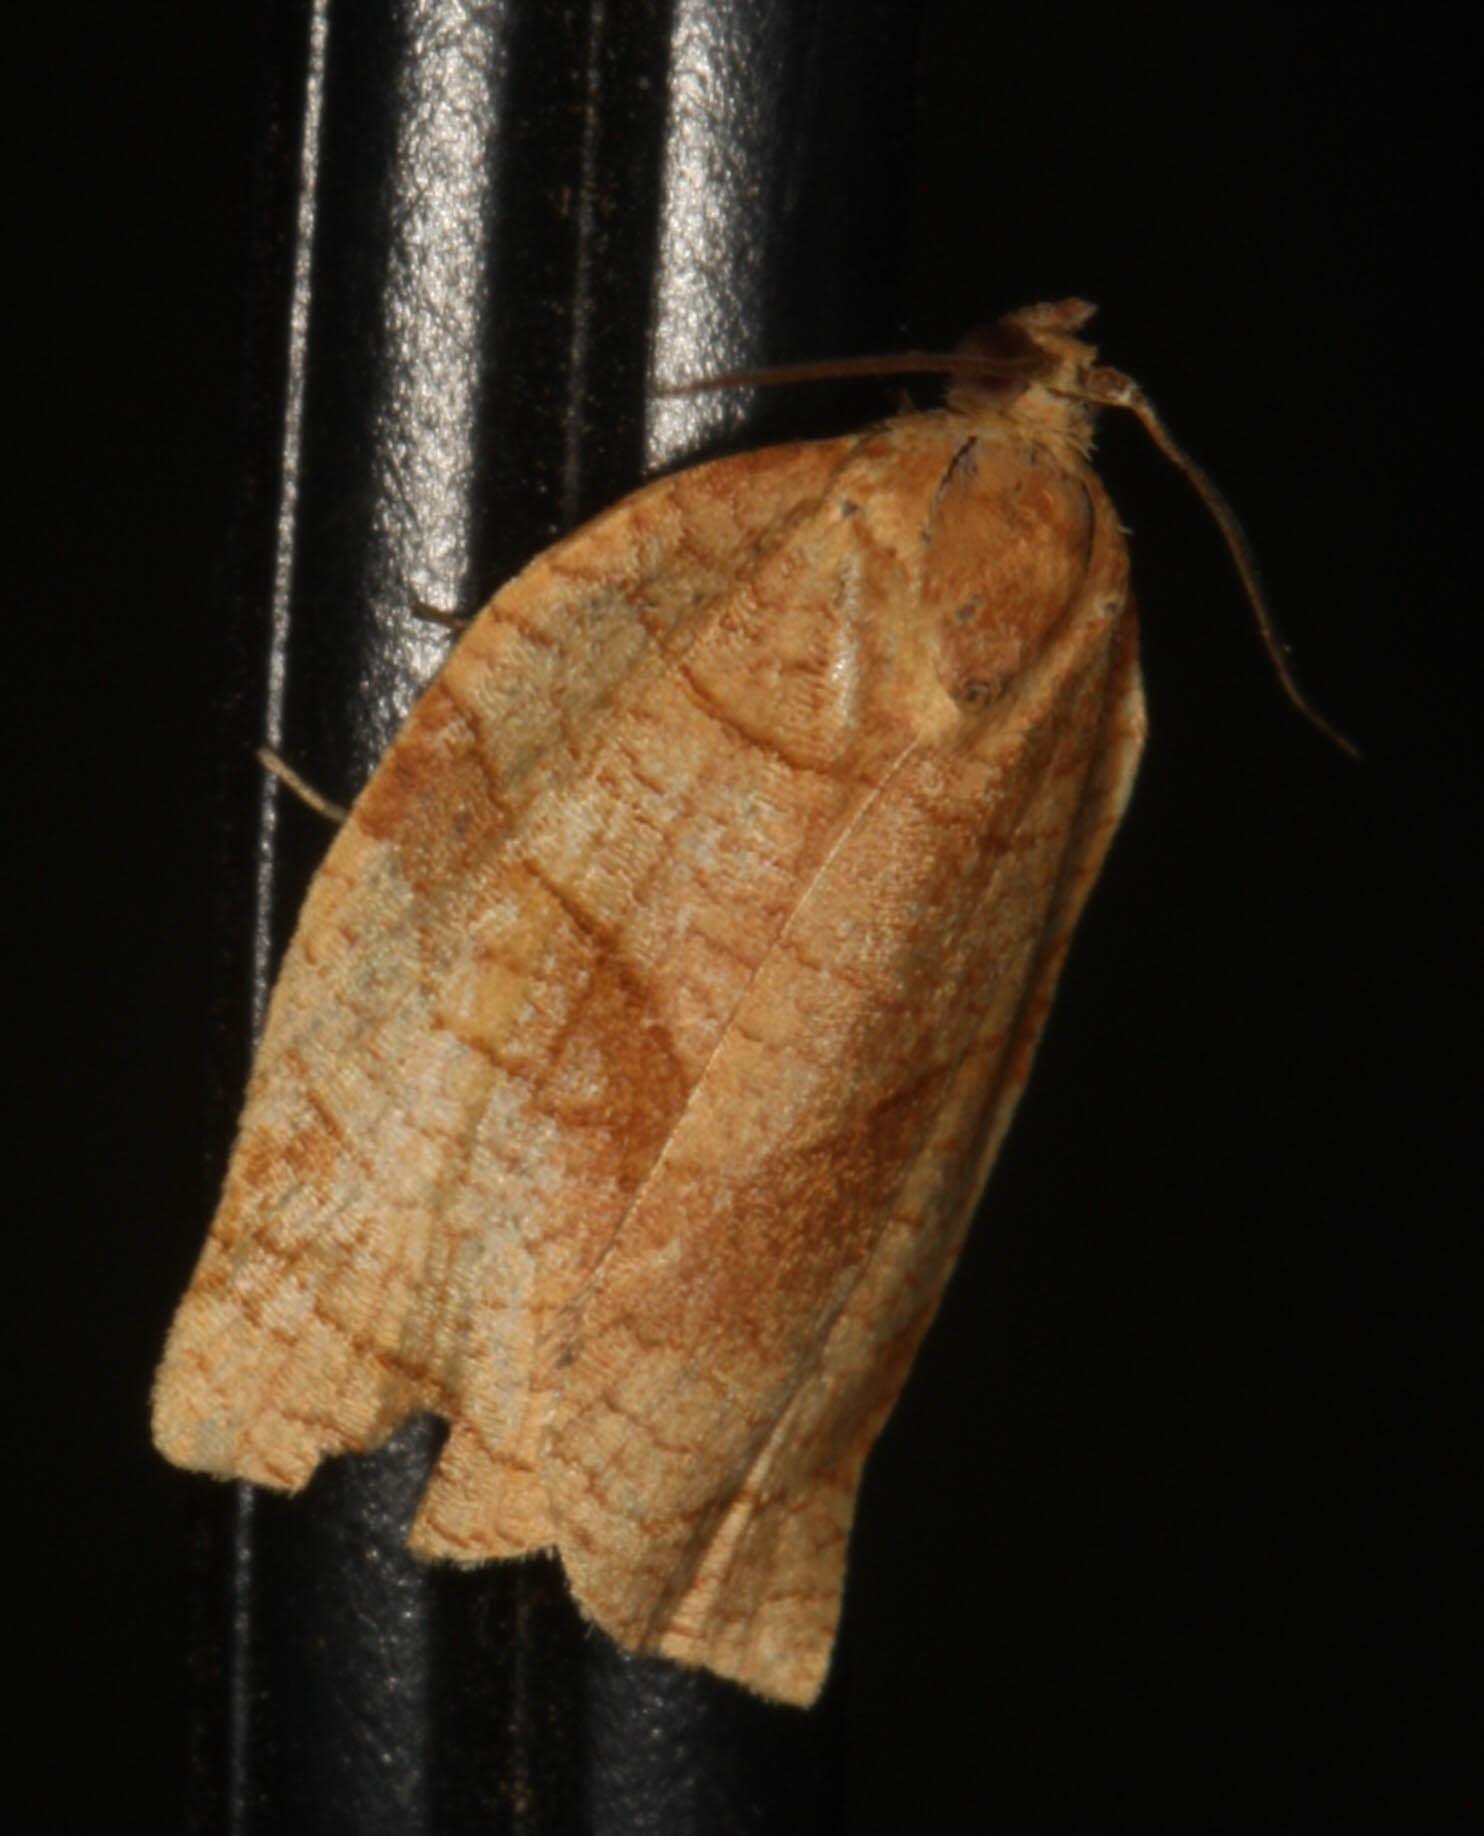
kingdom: Animalia
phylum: Arthropoda
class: Insecta
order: Lepidoptera
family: Tortricidae
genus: Choristoneura
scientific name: Choristoneura rosaceana
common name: Oblique-banded leafroller moth
